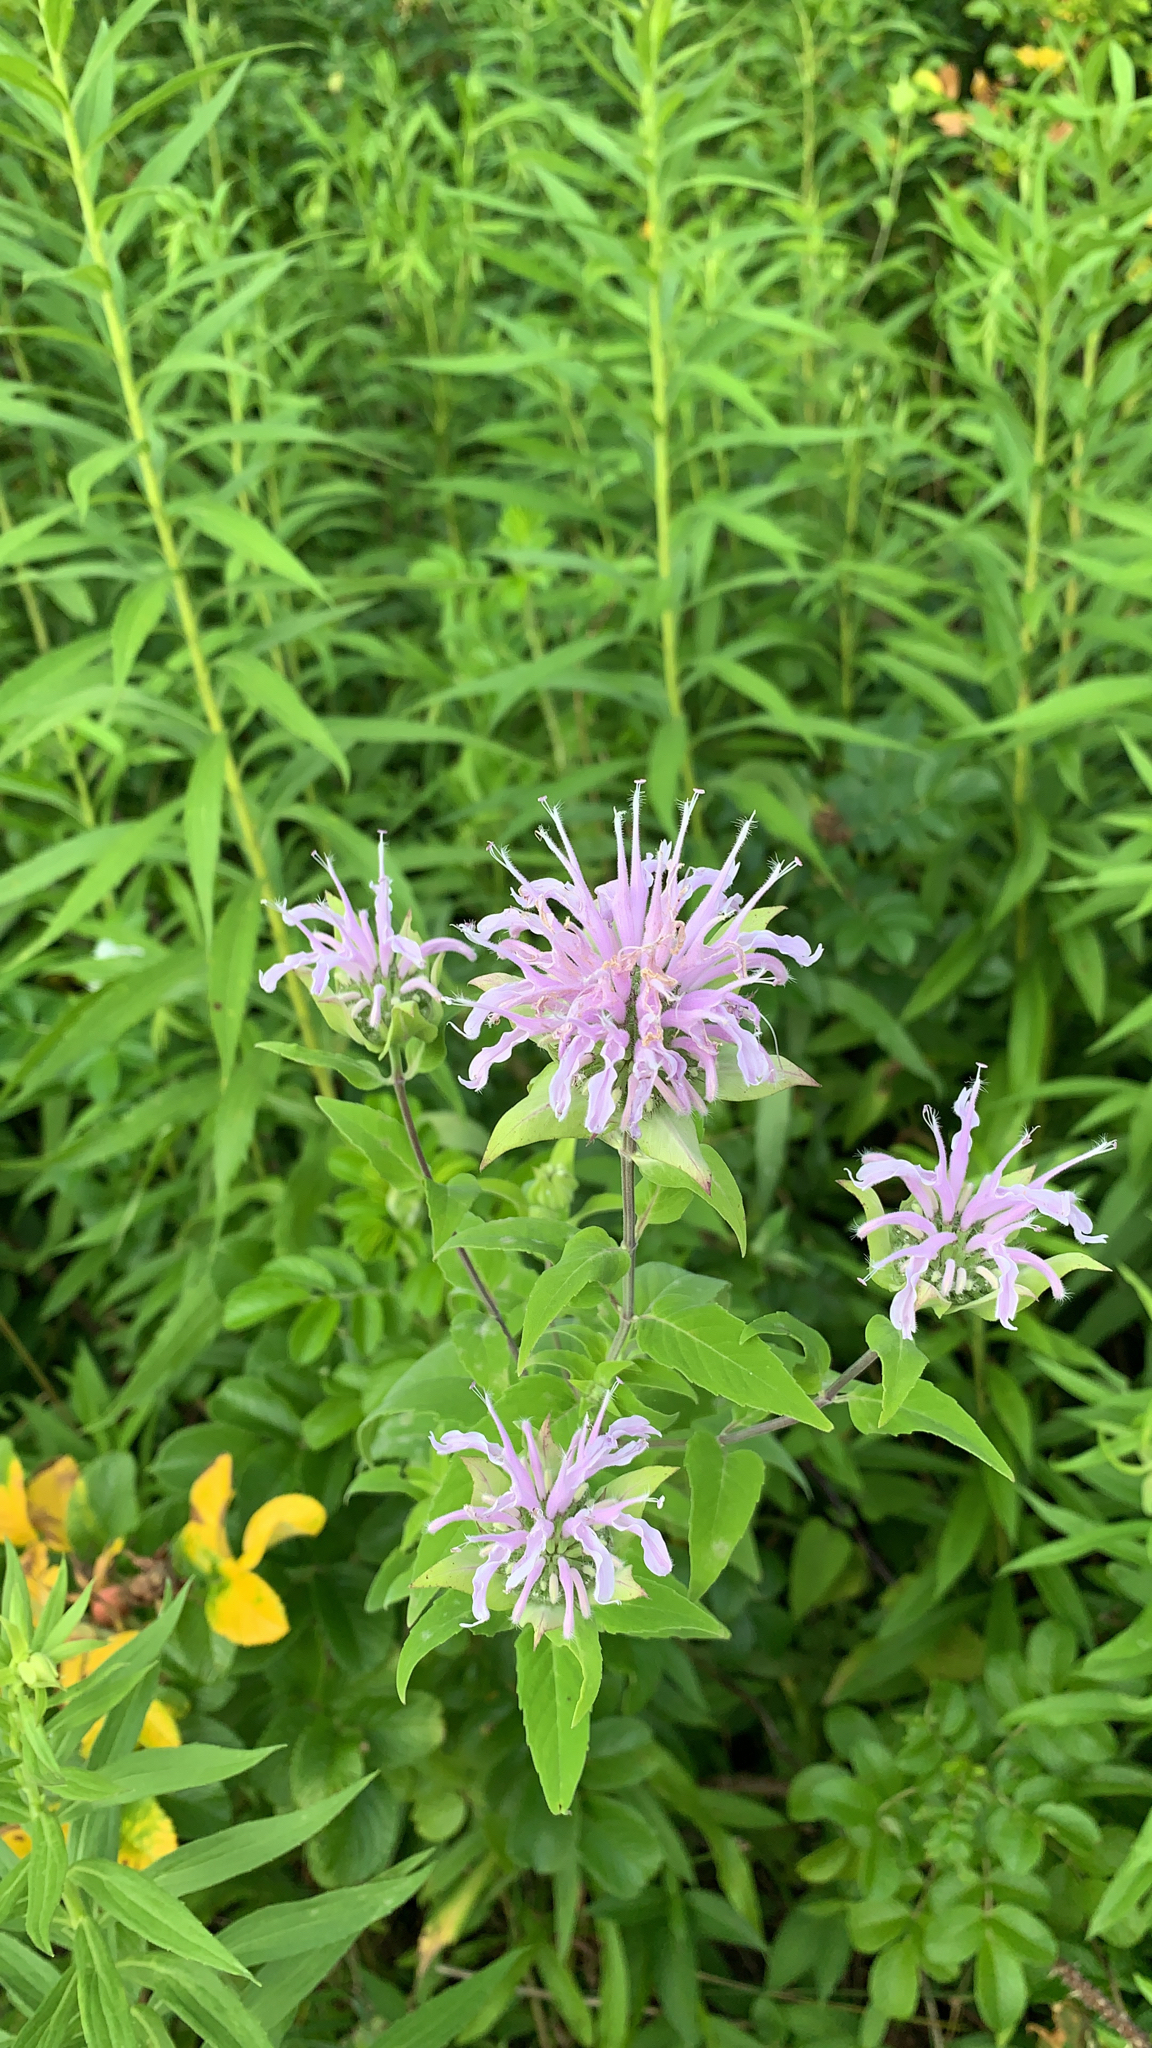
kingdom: Plantae
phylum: Tracheophyta
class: Magnoliopsida
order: Lamiales
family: Lamiaceae
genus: Monarda
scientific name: Monarda fistulosa
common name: Purple beebalm
